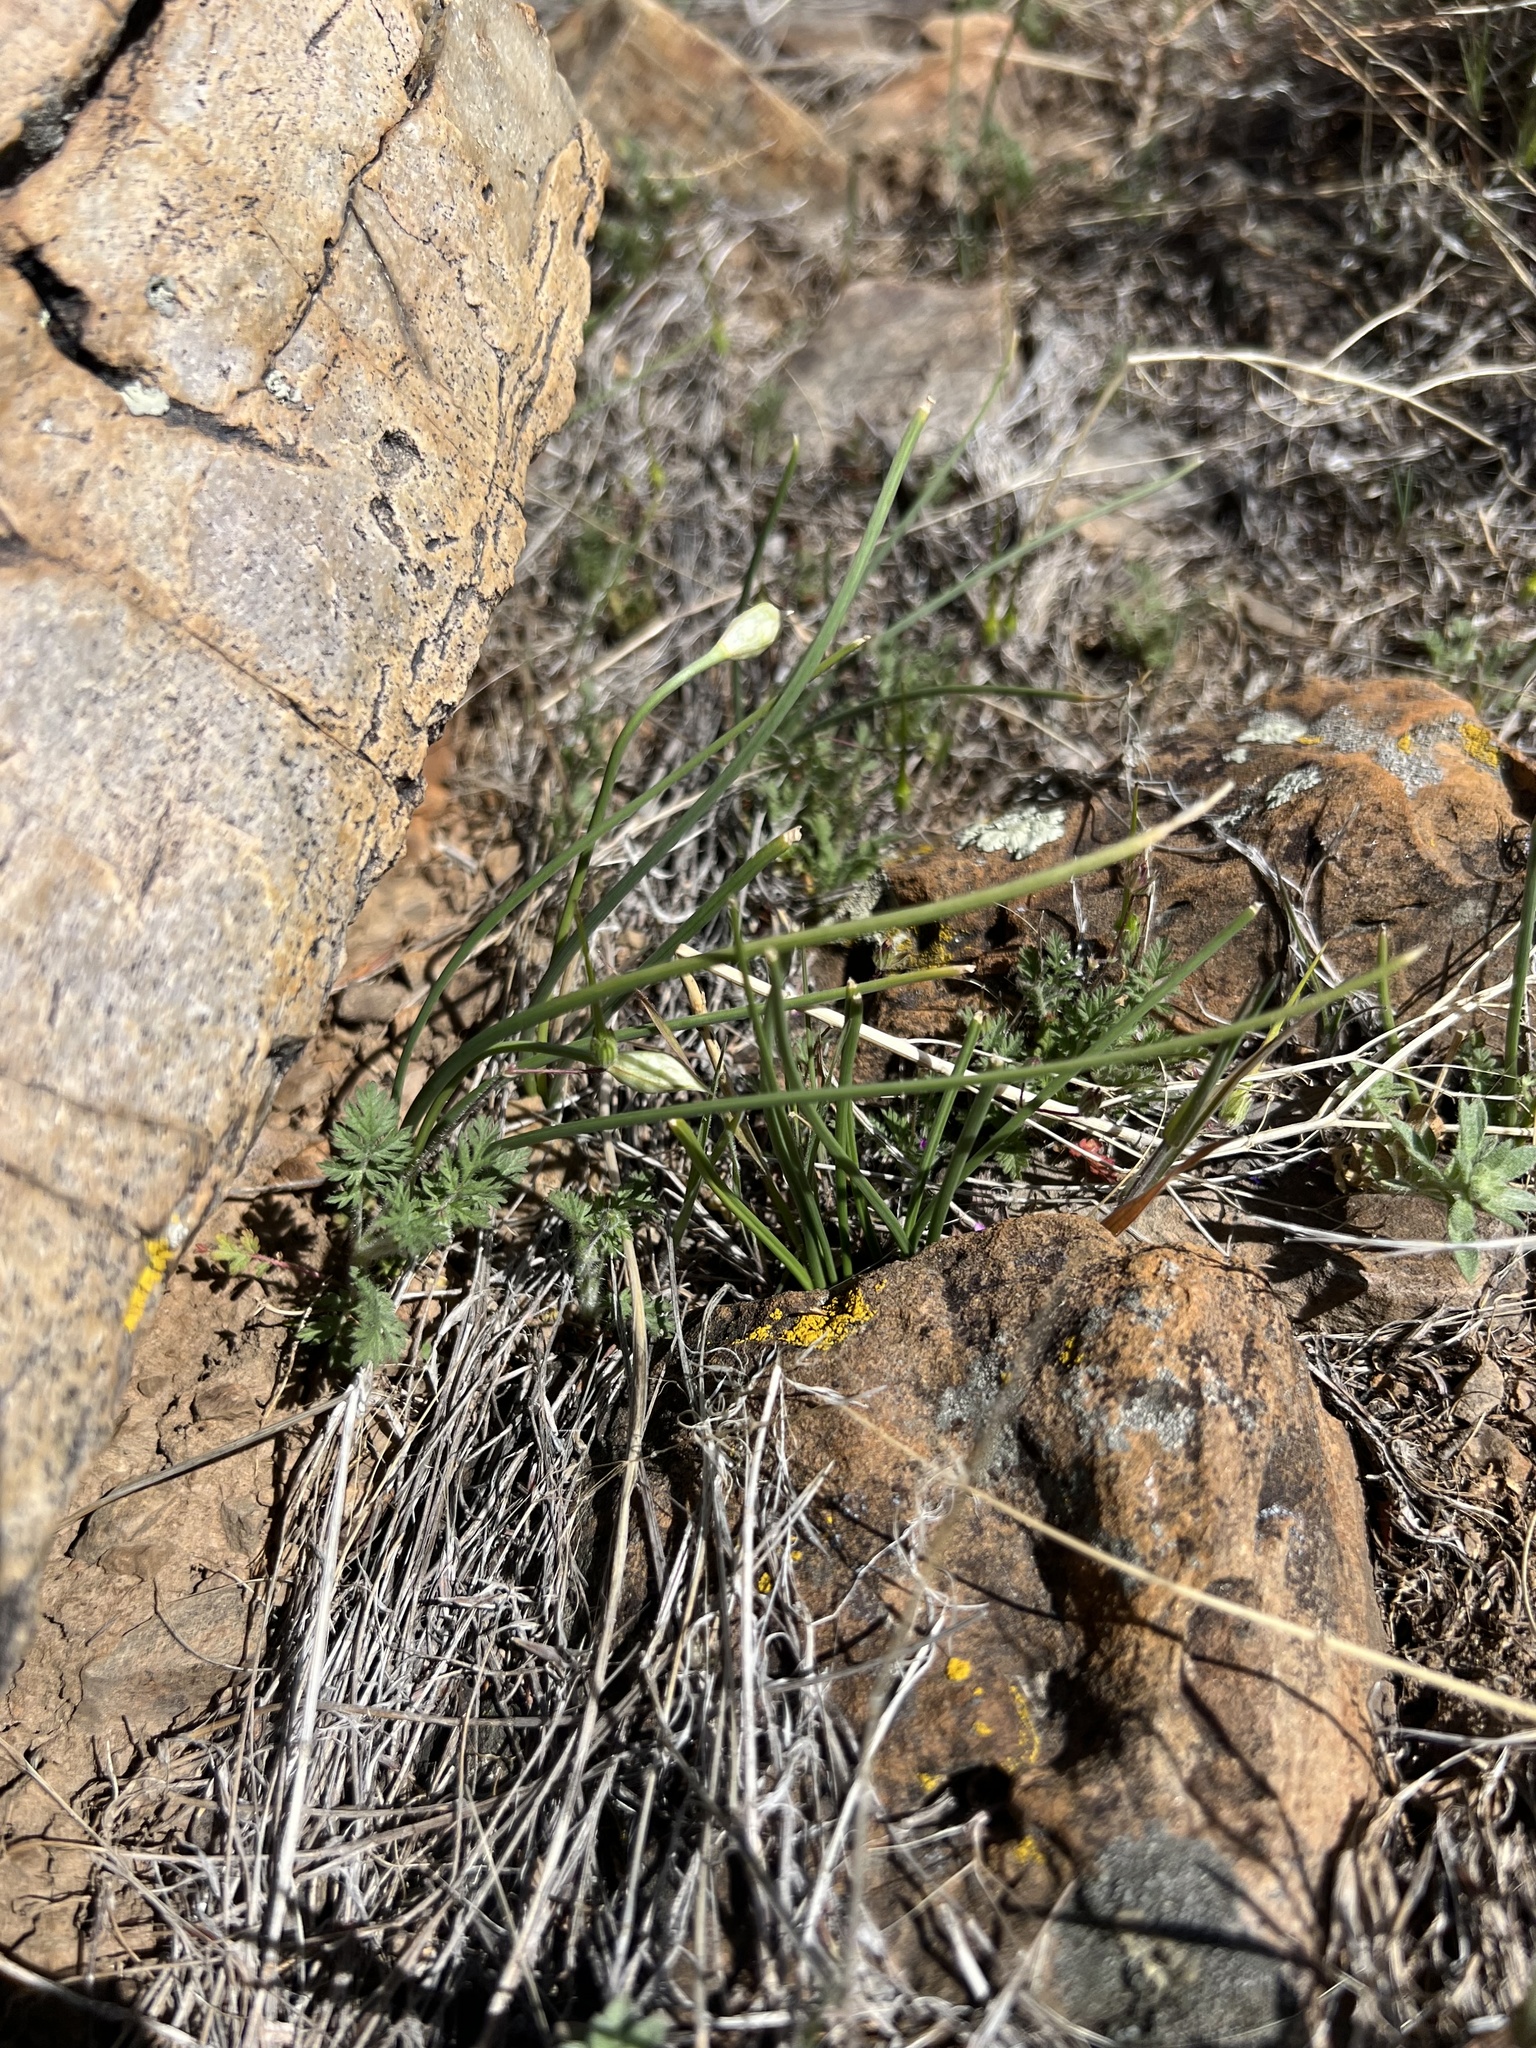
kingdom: Plantae
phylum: Tracheophyta
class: Liliopsida
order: Asparagales
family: Amaryllidaceae
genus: Allium
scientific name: Allium textile
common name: Prairie onion
